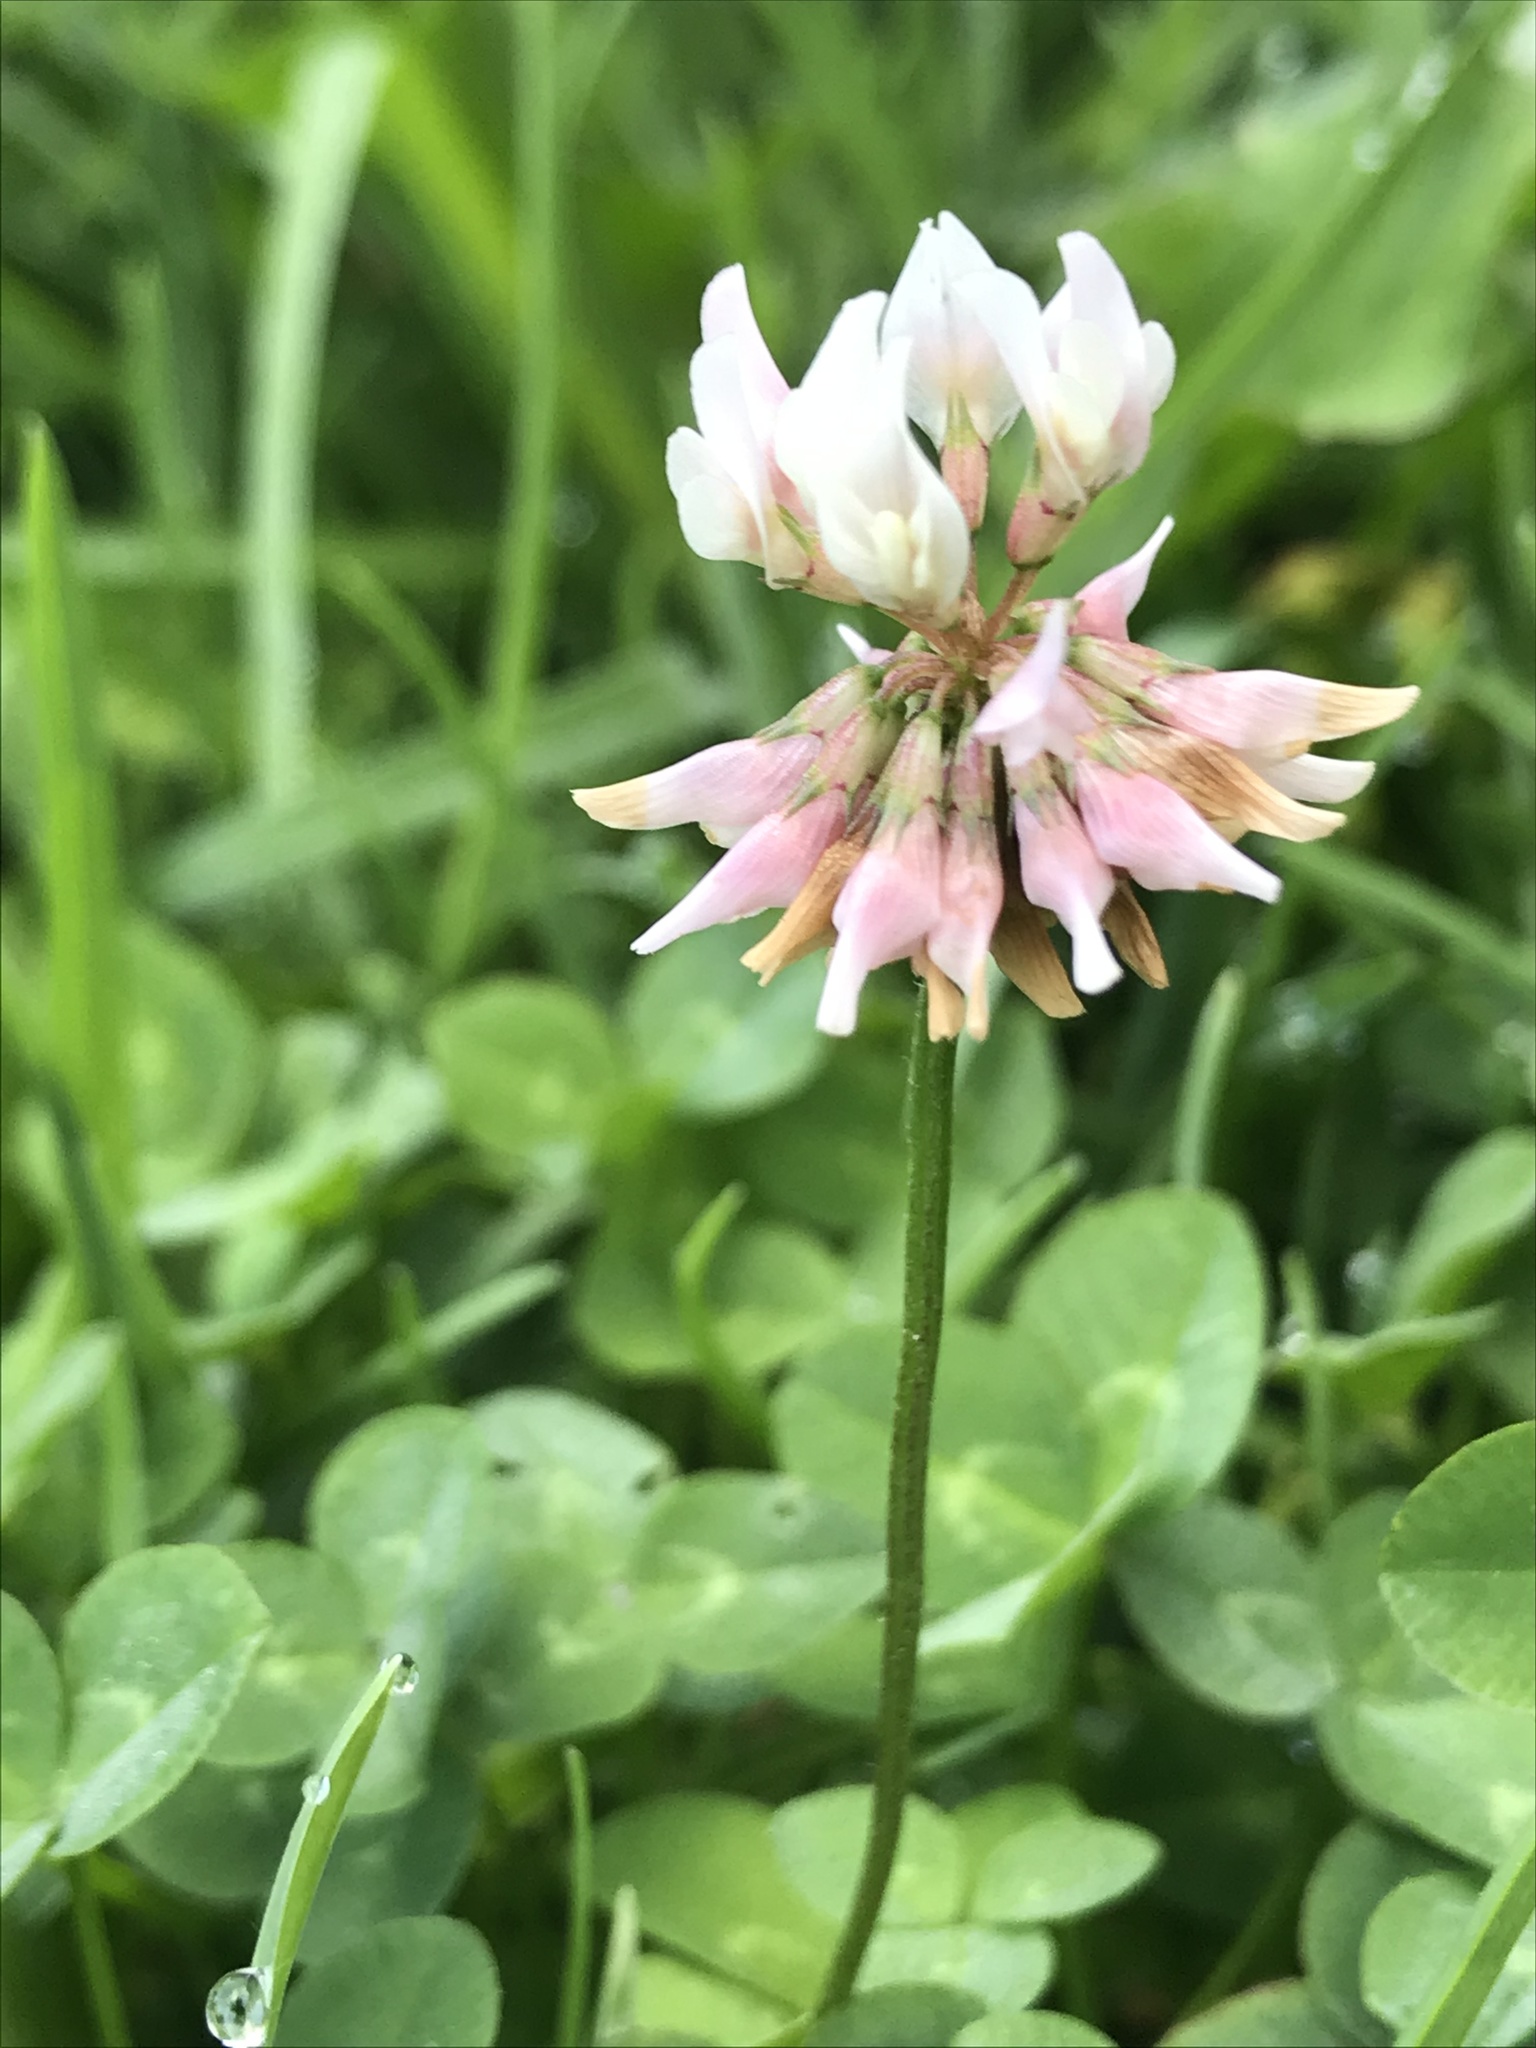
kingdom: Plantae
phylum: Tracheophyta
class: Magnoliopsida
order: Fabales
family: Fabaceae
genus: Trifolium
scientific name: Trifolium repens
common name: White clover
